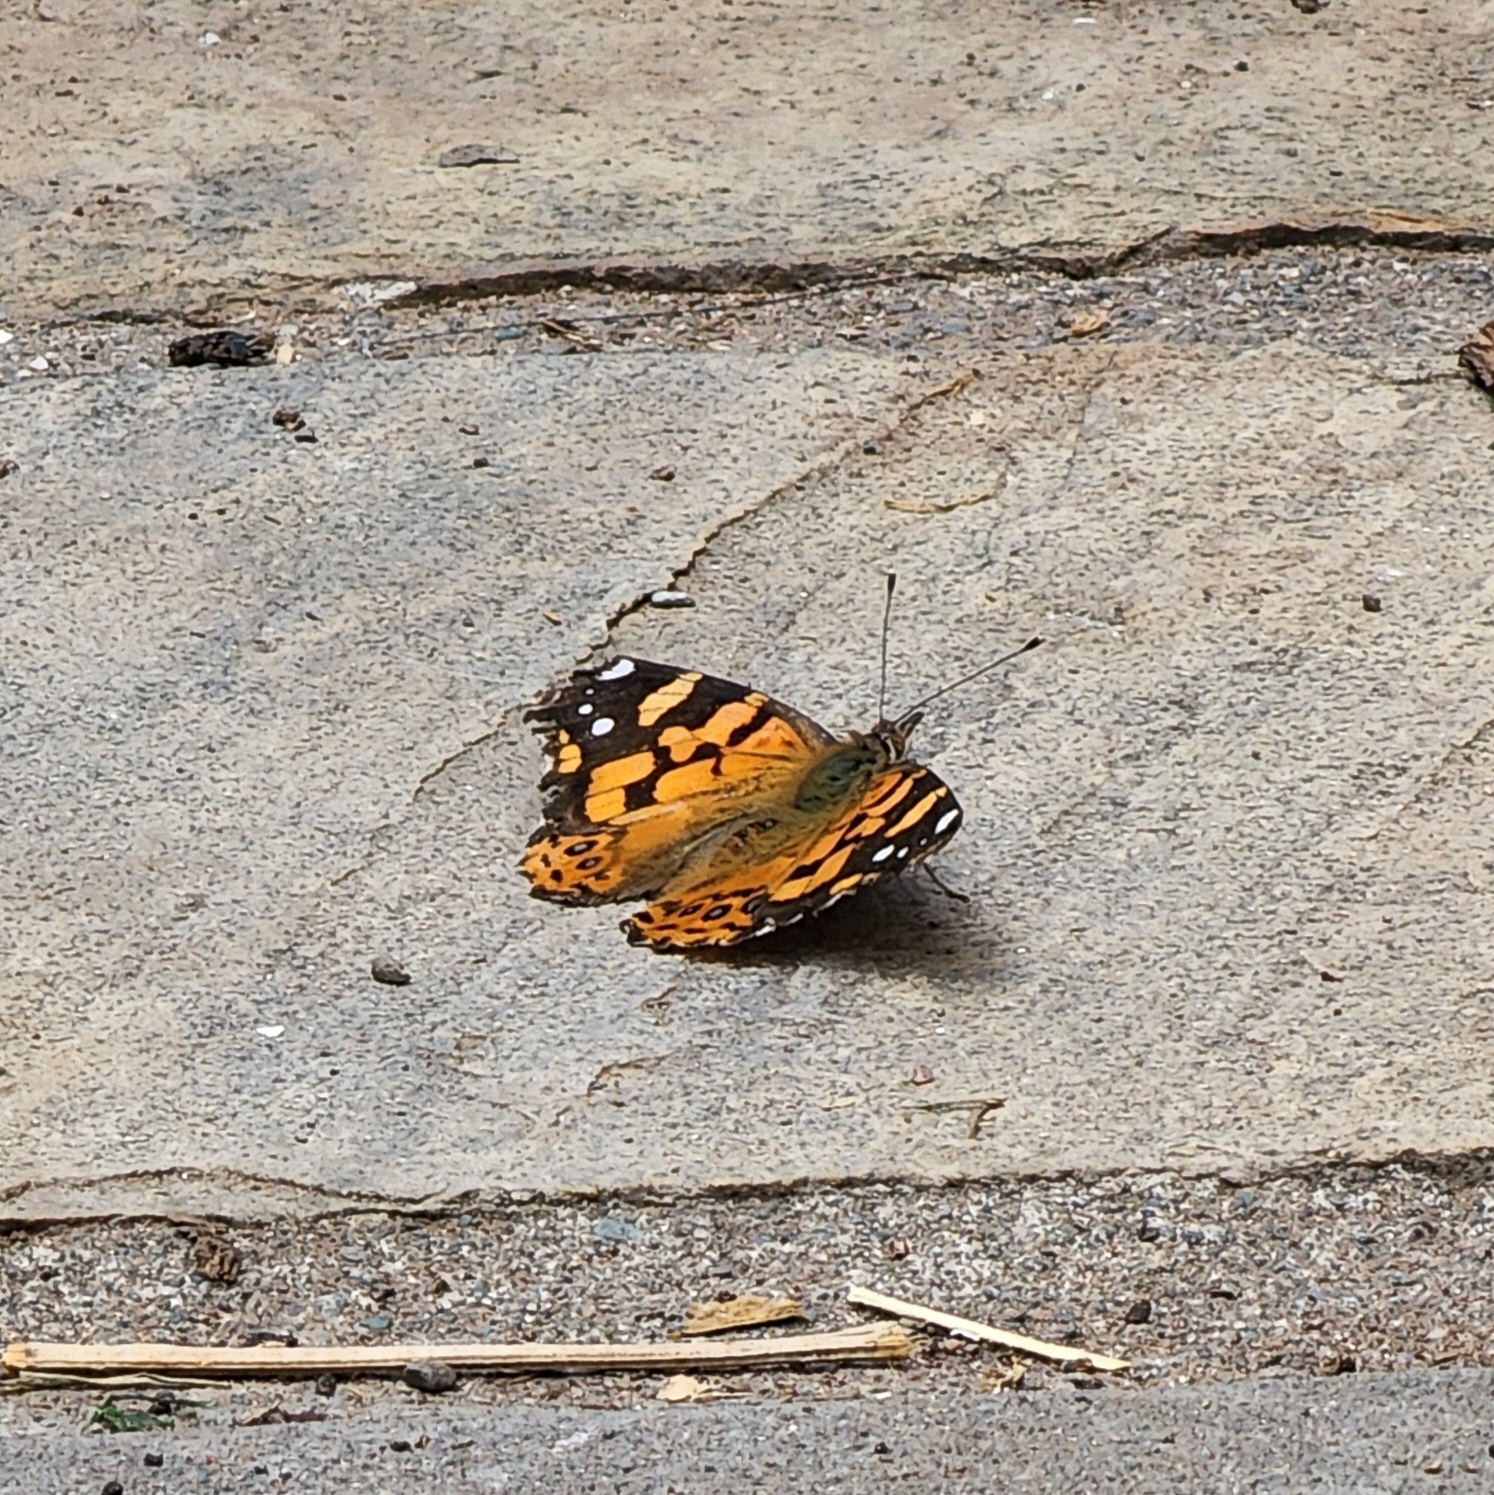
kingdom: Animalia
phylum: Arthropoda
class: Insecta
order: Lepidoptera
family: Nymphalidae
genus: Vanessa
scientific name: Vanessa carye
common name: Subtropical lady
